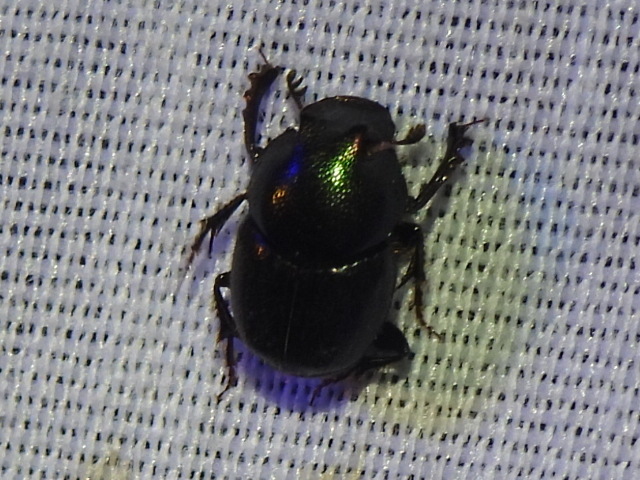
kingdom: Animalia
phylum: Arthropoda
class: Insecta
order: Coleoptera
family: Scarabaeidae
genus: Onthophagus
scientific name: Onthophagus orpheus
